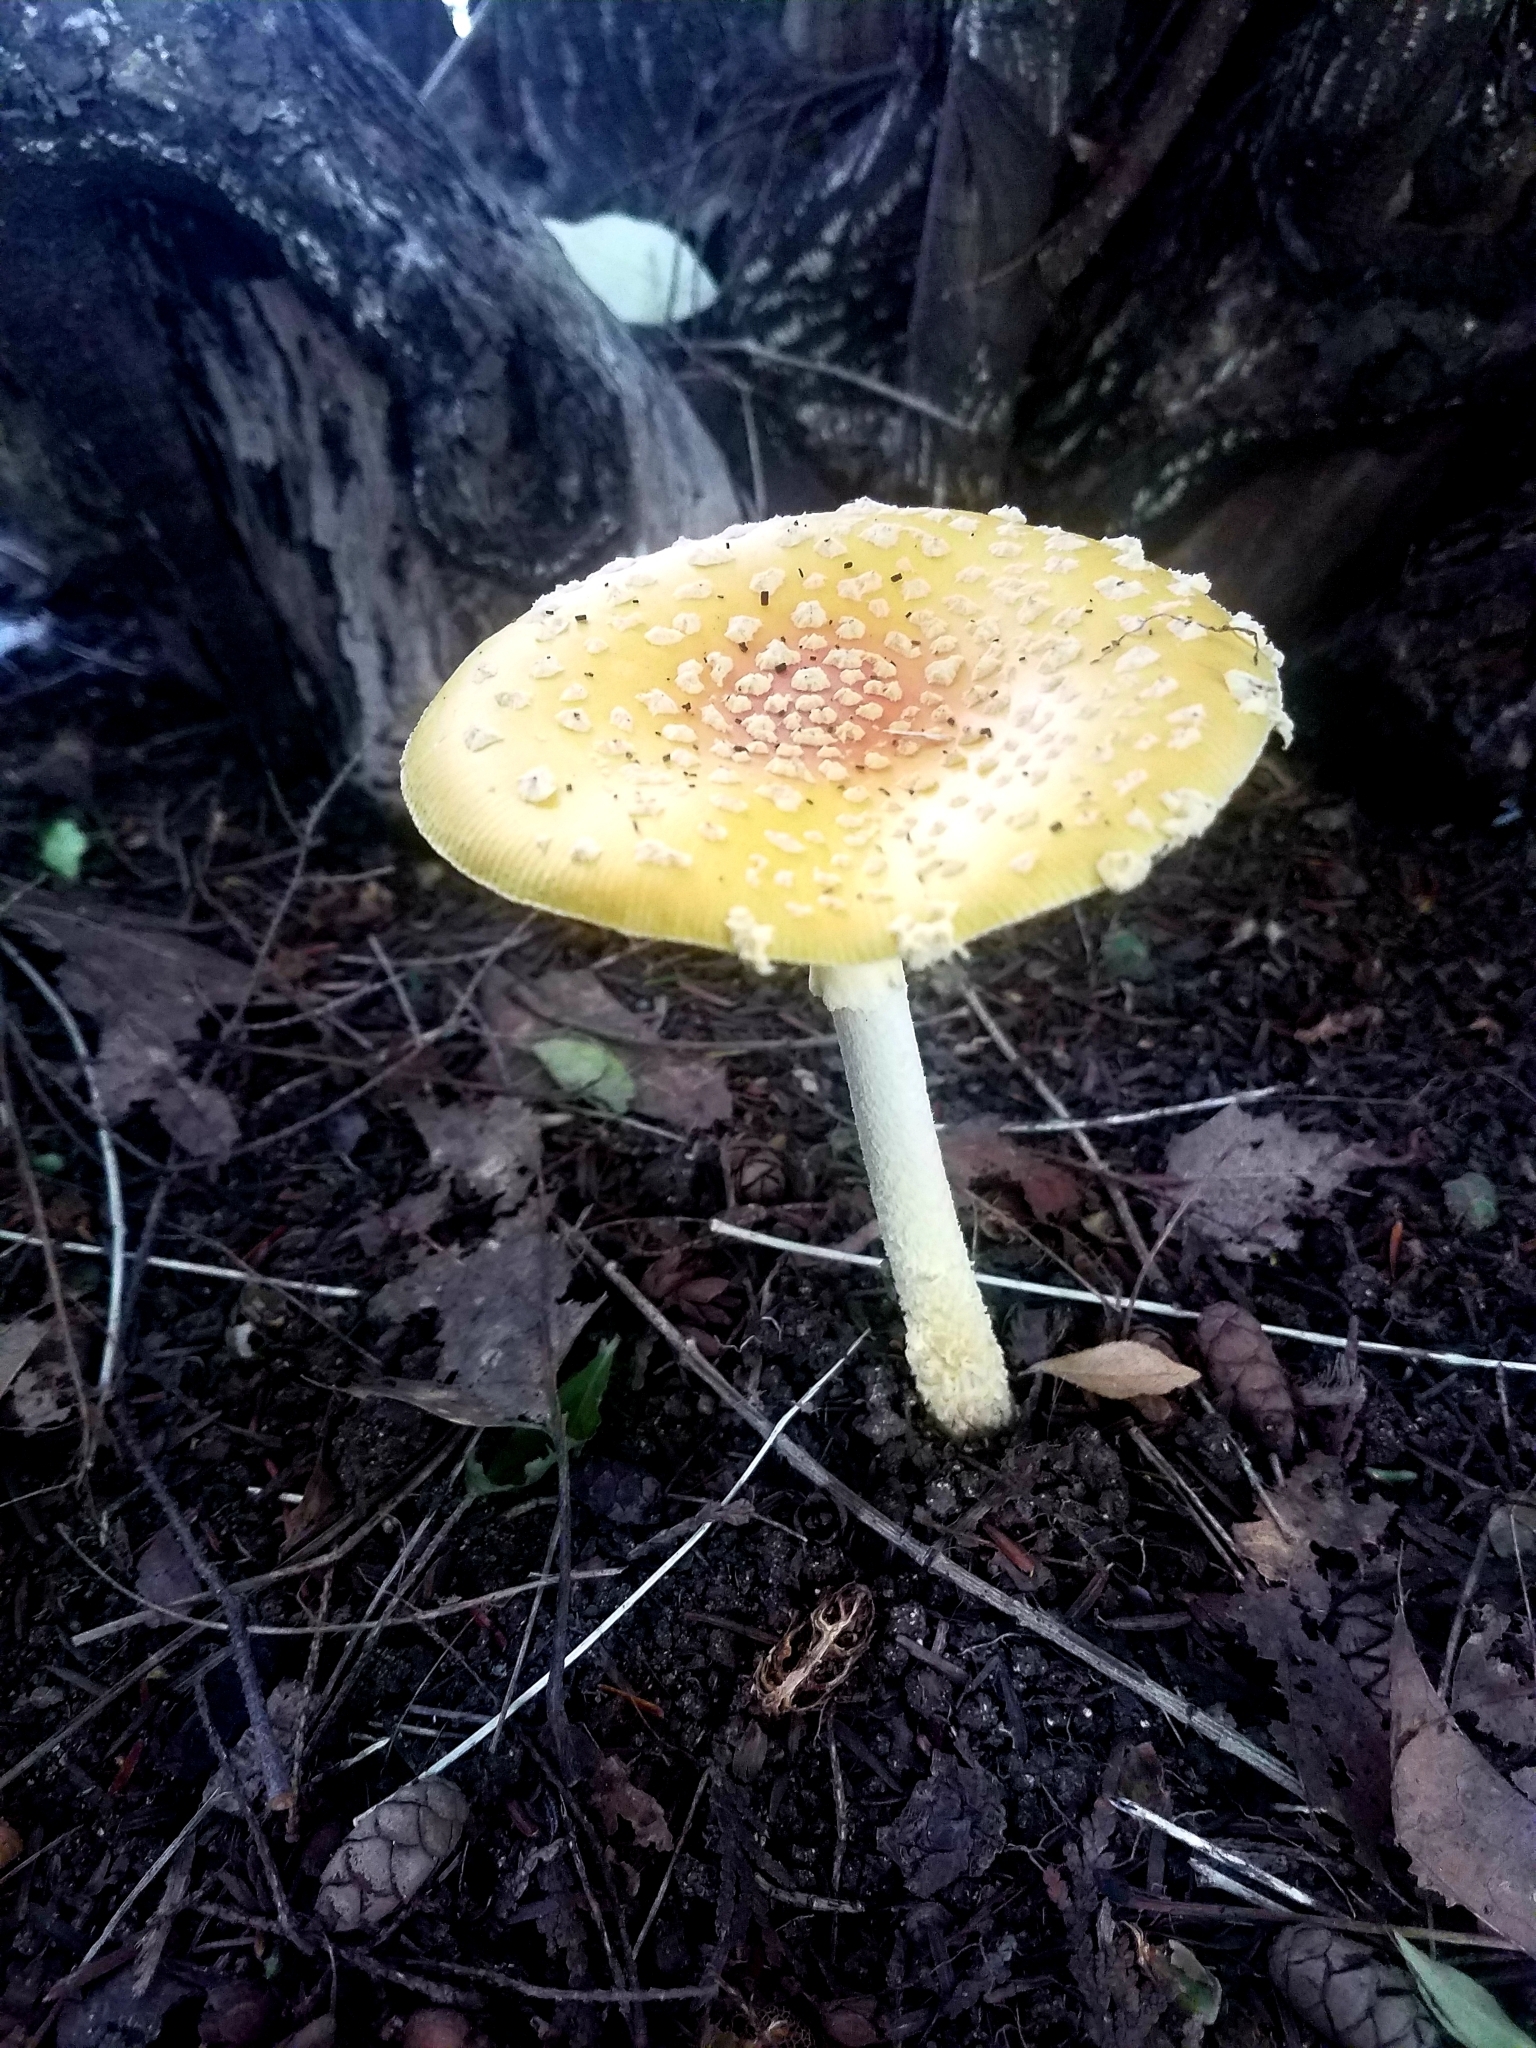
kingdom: Fungi
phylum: Basidiomycota
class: Agaricomycetes
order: Agaricales
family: Amanitaceae
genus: Amanita
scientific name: Amanita muscaria
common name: Fly agaric
